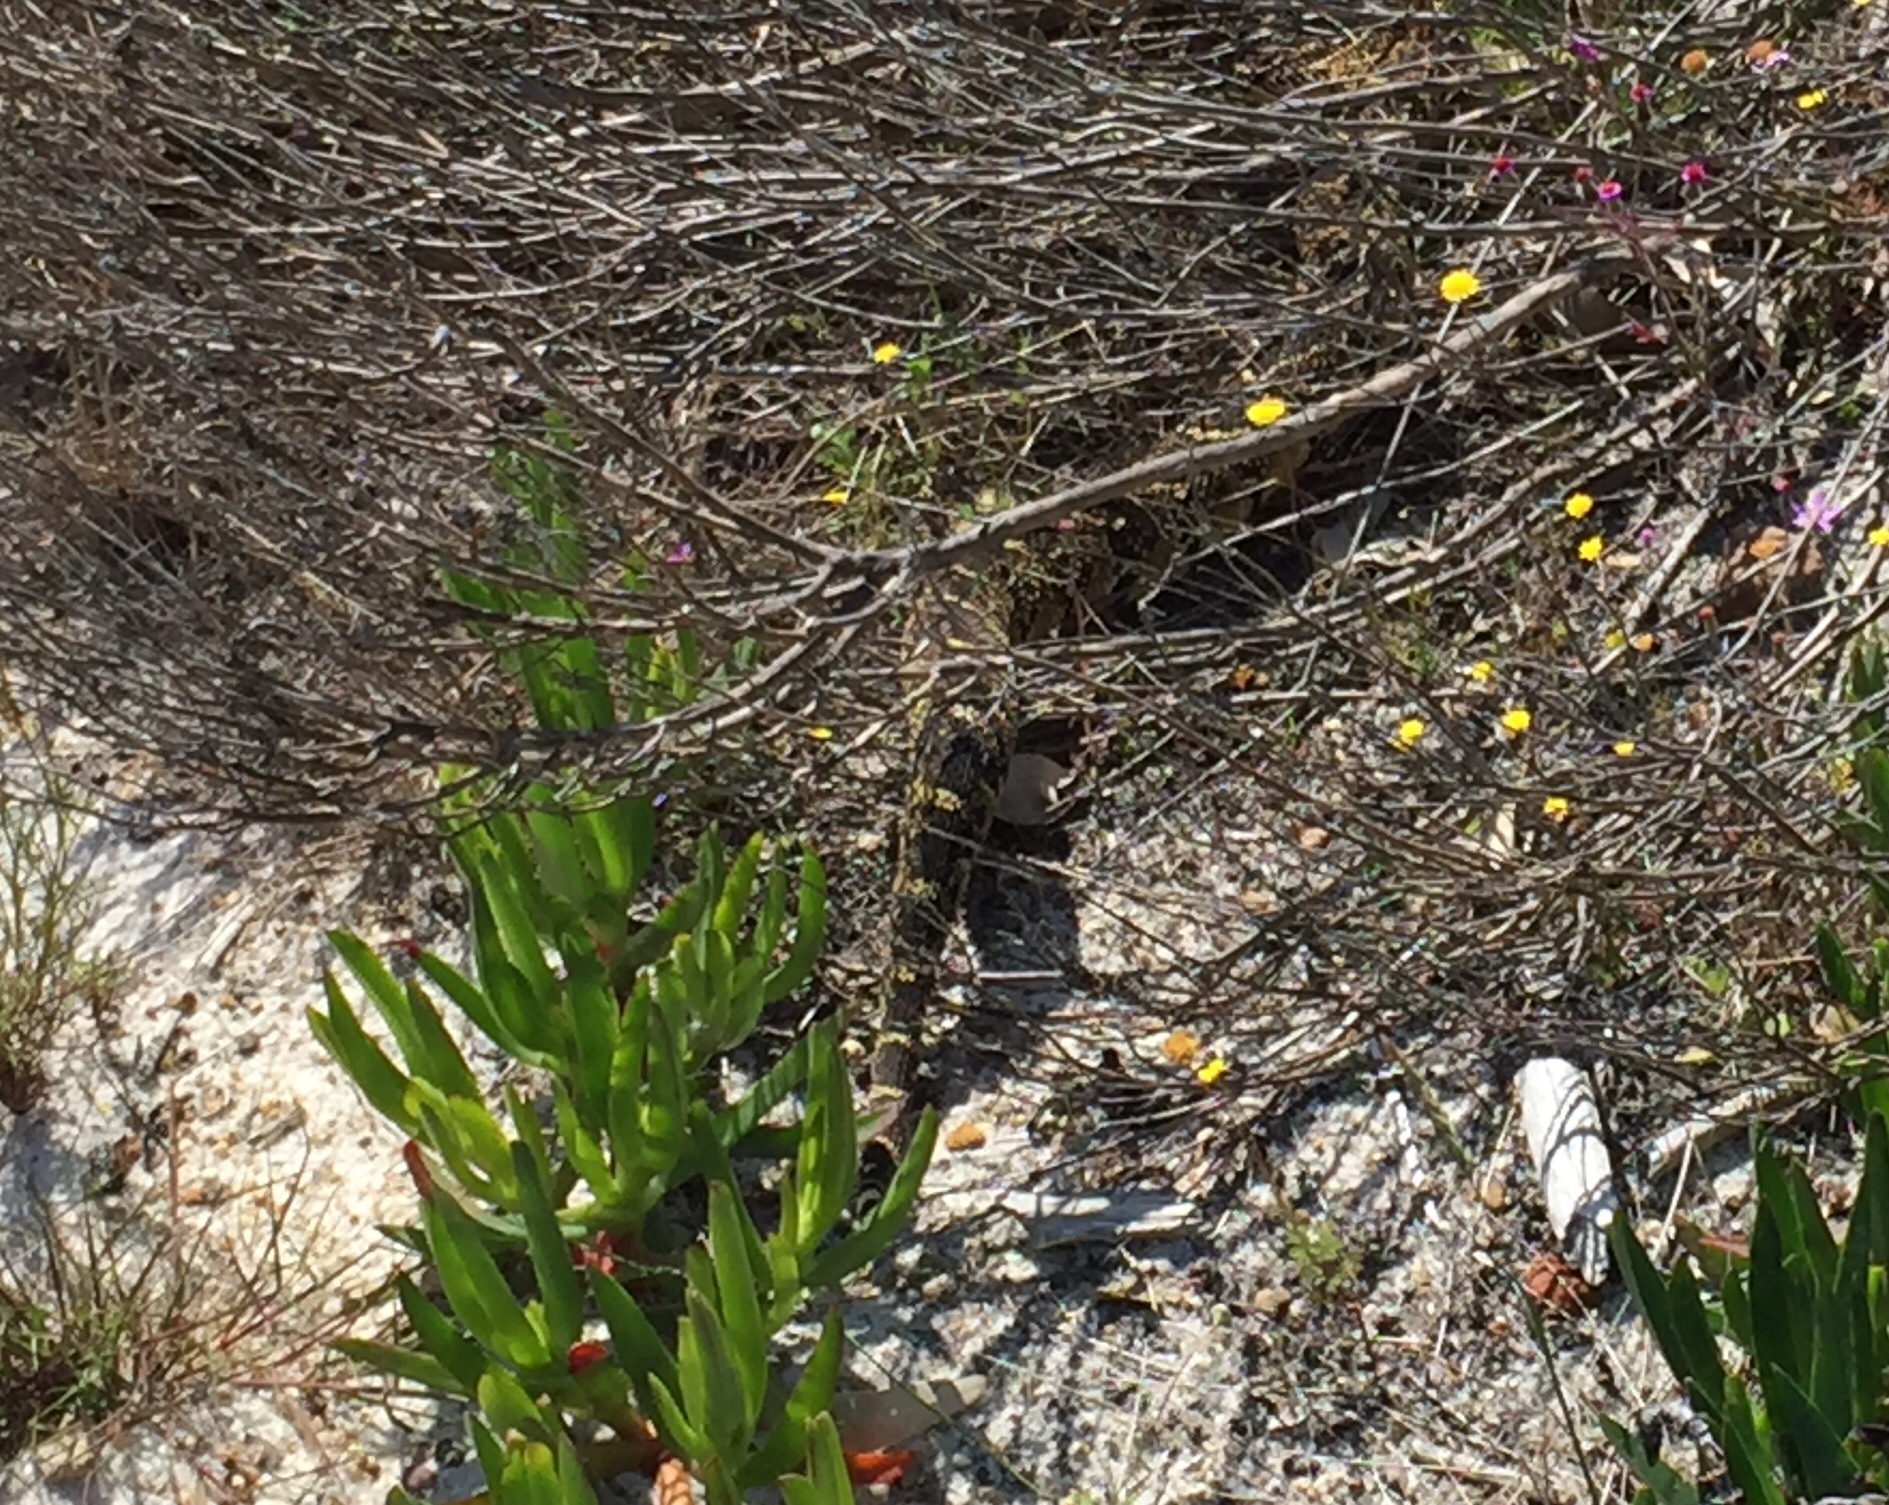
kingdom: Animalia
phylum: Chordata
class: Squamata
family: Viperidae
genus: Bitis
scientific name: Bitis arietans
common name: Puff adder
